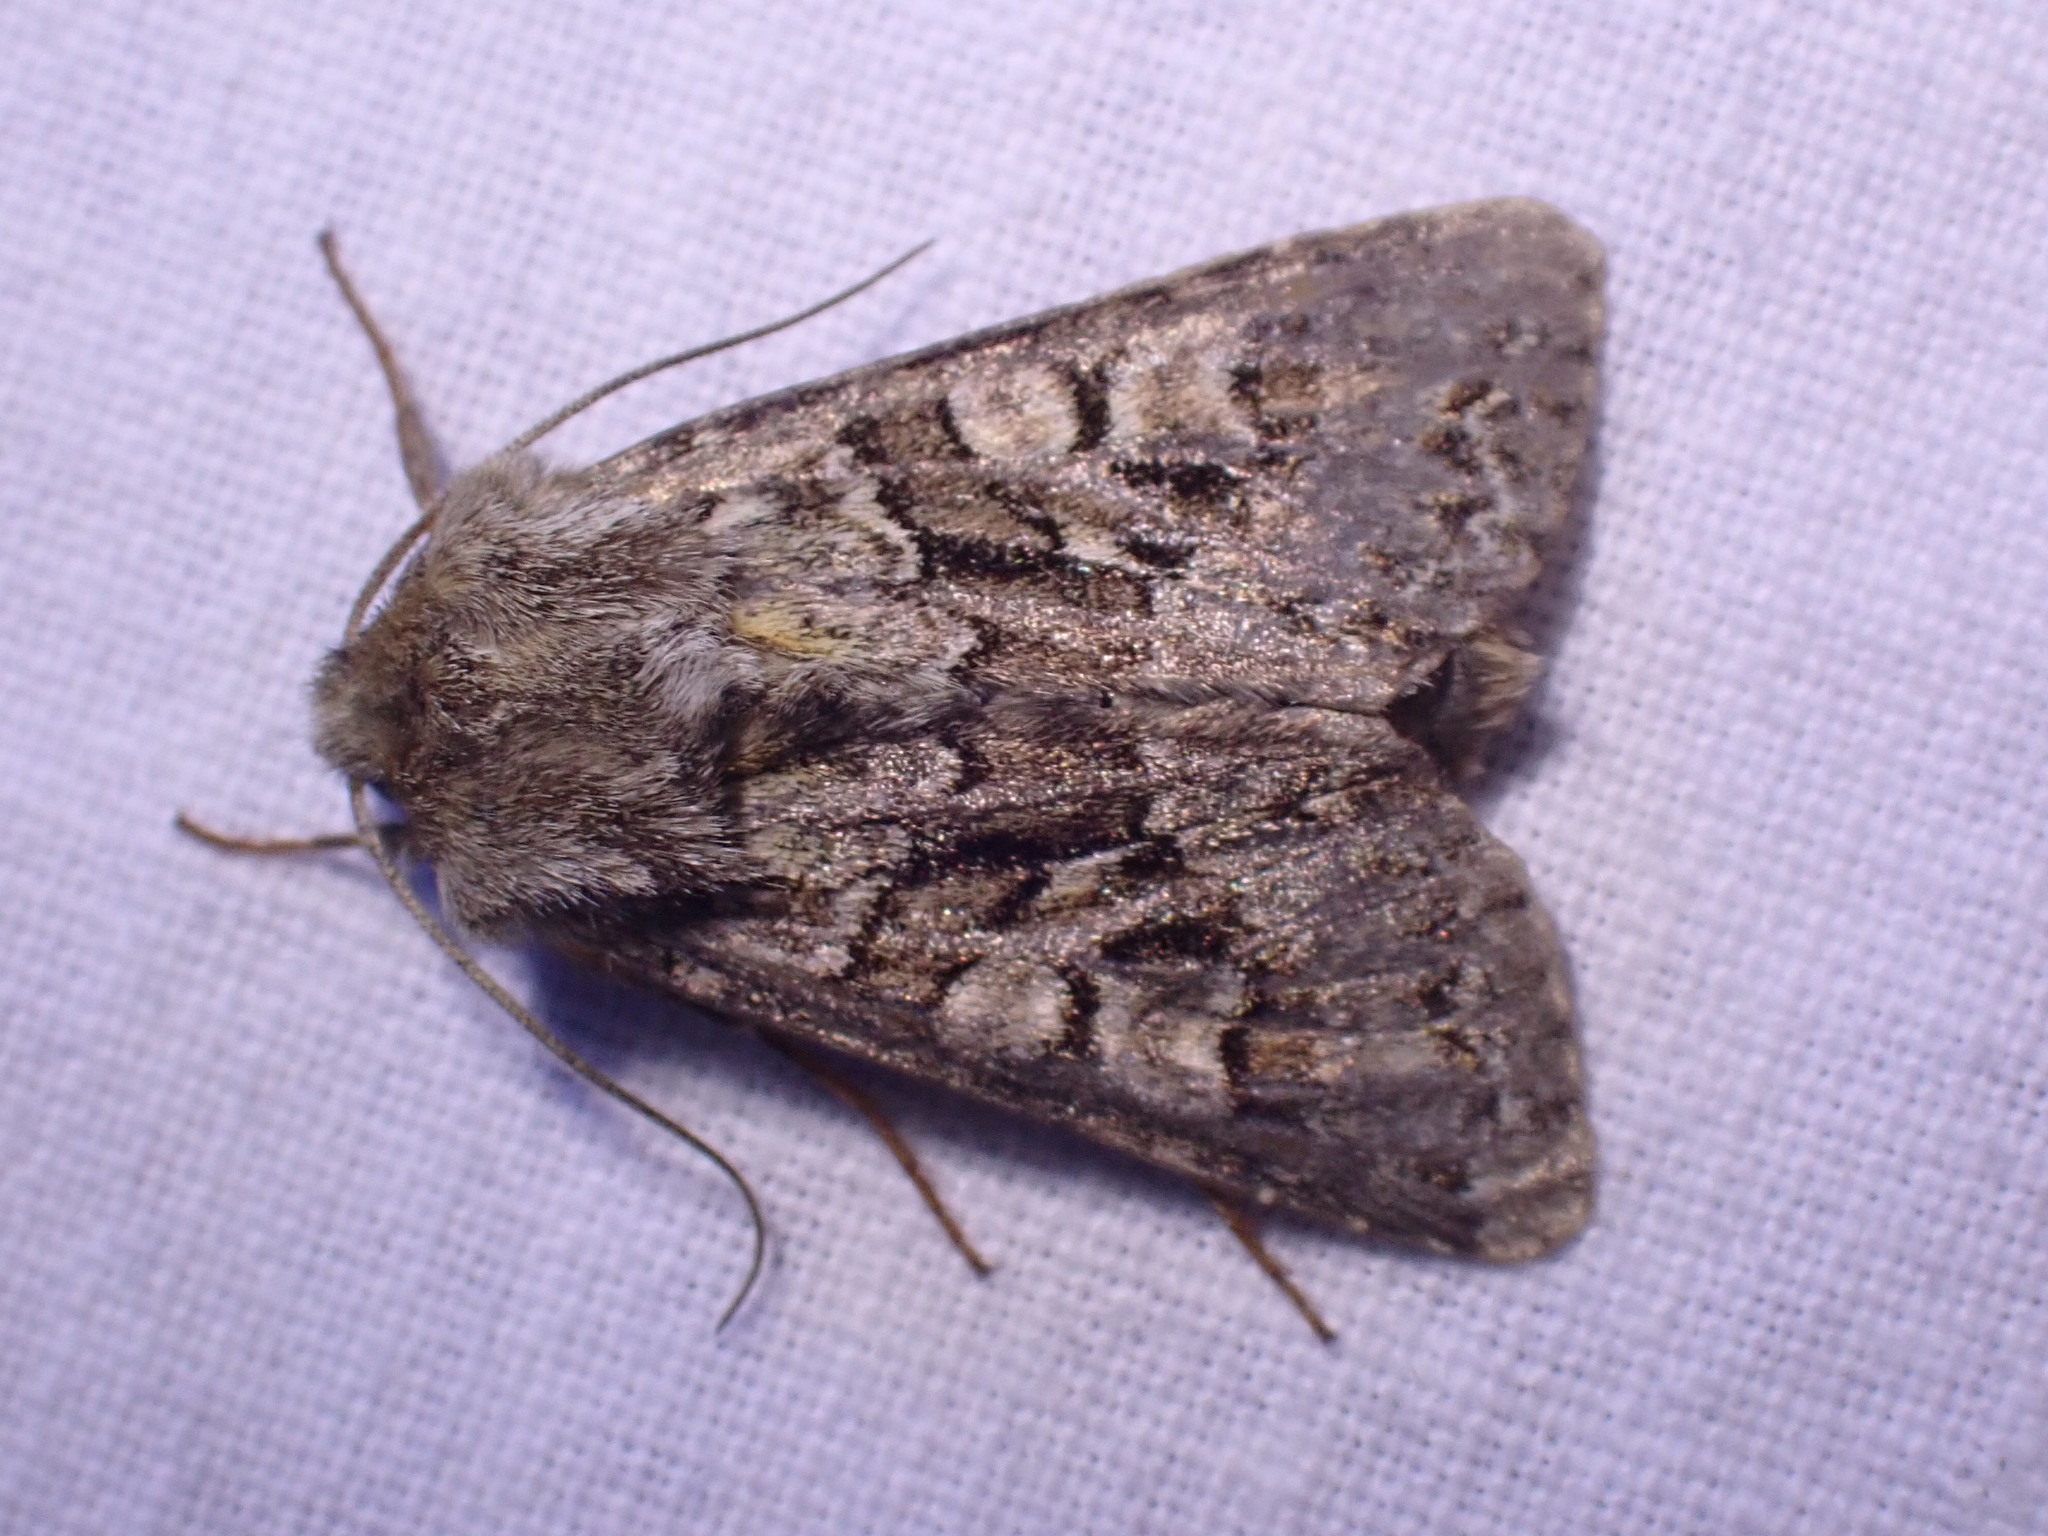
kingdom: Animalia
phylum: Arthropoda
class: Insecta
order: Lepidoptera
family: Noctuidae
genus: Hada
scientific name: Hada plebeja
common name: Shears
